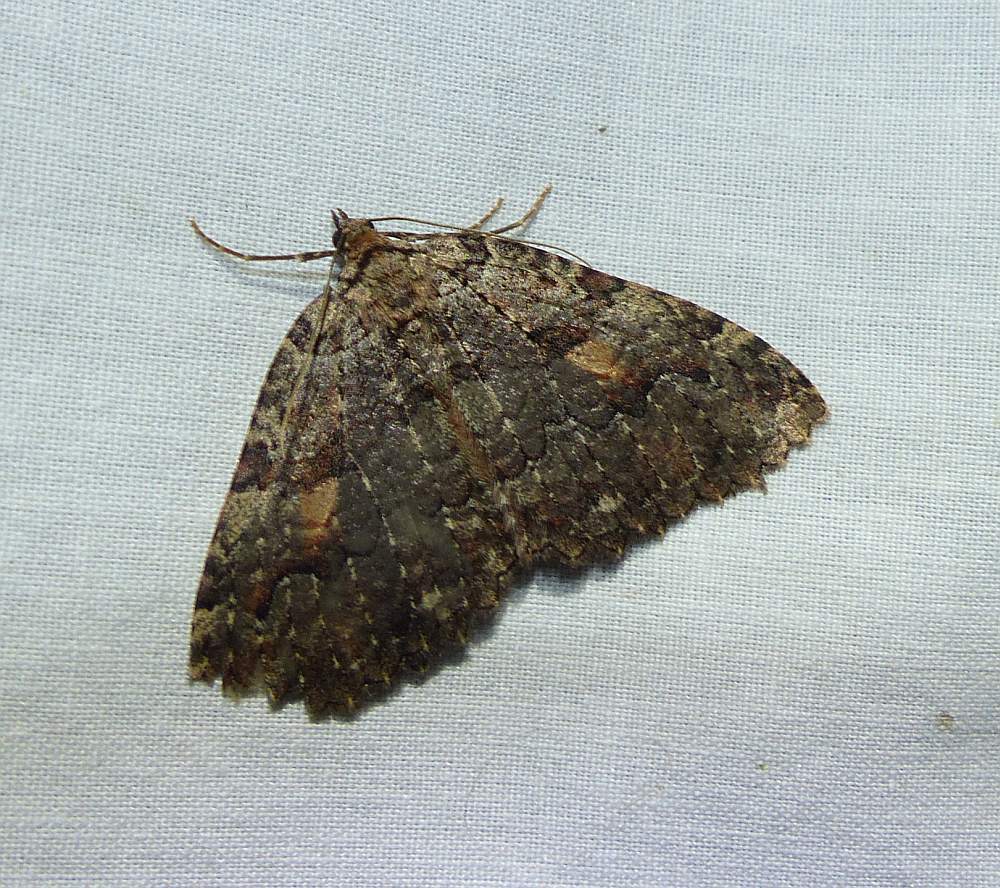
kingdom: Animalia
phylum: Arthropoda
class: Insecta
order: Lepidoptera
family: Geometridae
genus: Triphosa
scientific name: Triphosa haesitata
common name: Tissue moth
